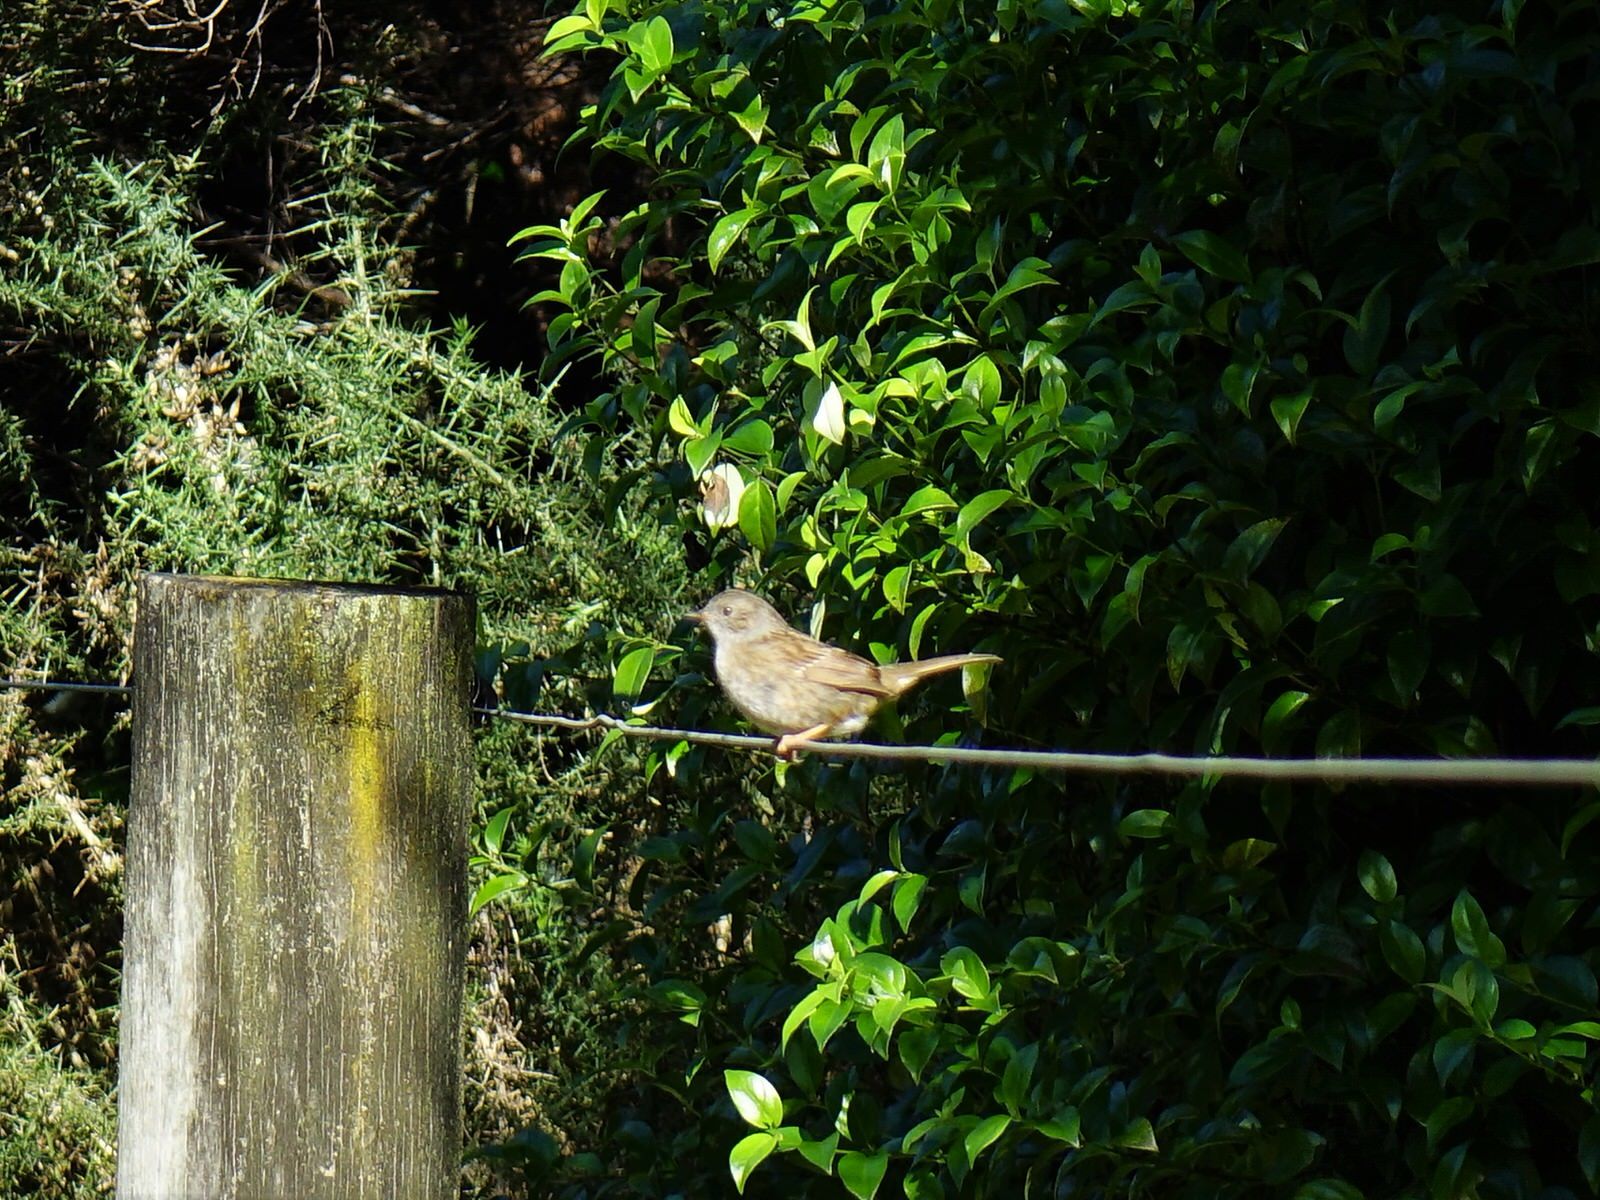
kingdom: Animalia
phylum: Chordata
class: Aves
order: Passeriformes
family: Prunellidae
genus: Prunella
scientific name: Prunella modularis
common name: Dunnock
